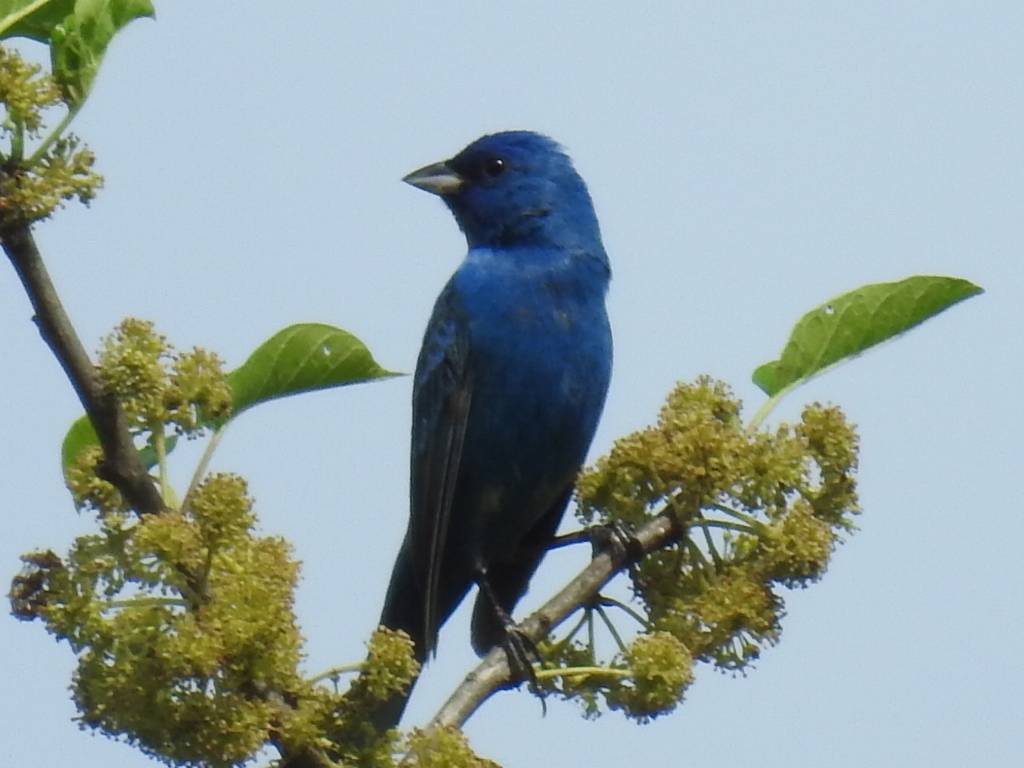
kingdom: Animalia
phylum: Chordata
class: Aves
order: Passeriformes
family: Cardinalidae
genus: Passerina
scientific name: Passerina cyanea
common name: Indigo bunting
